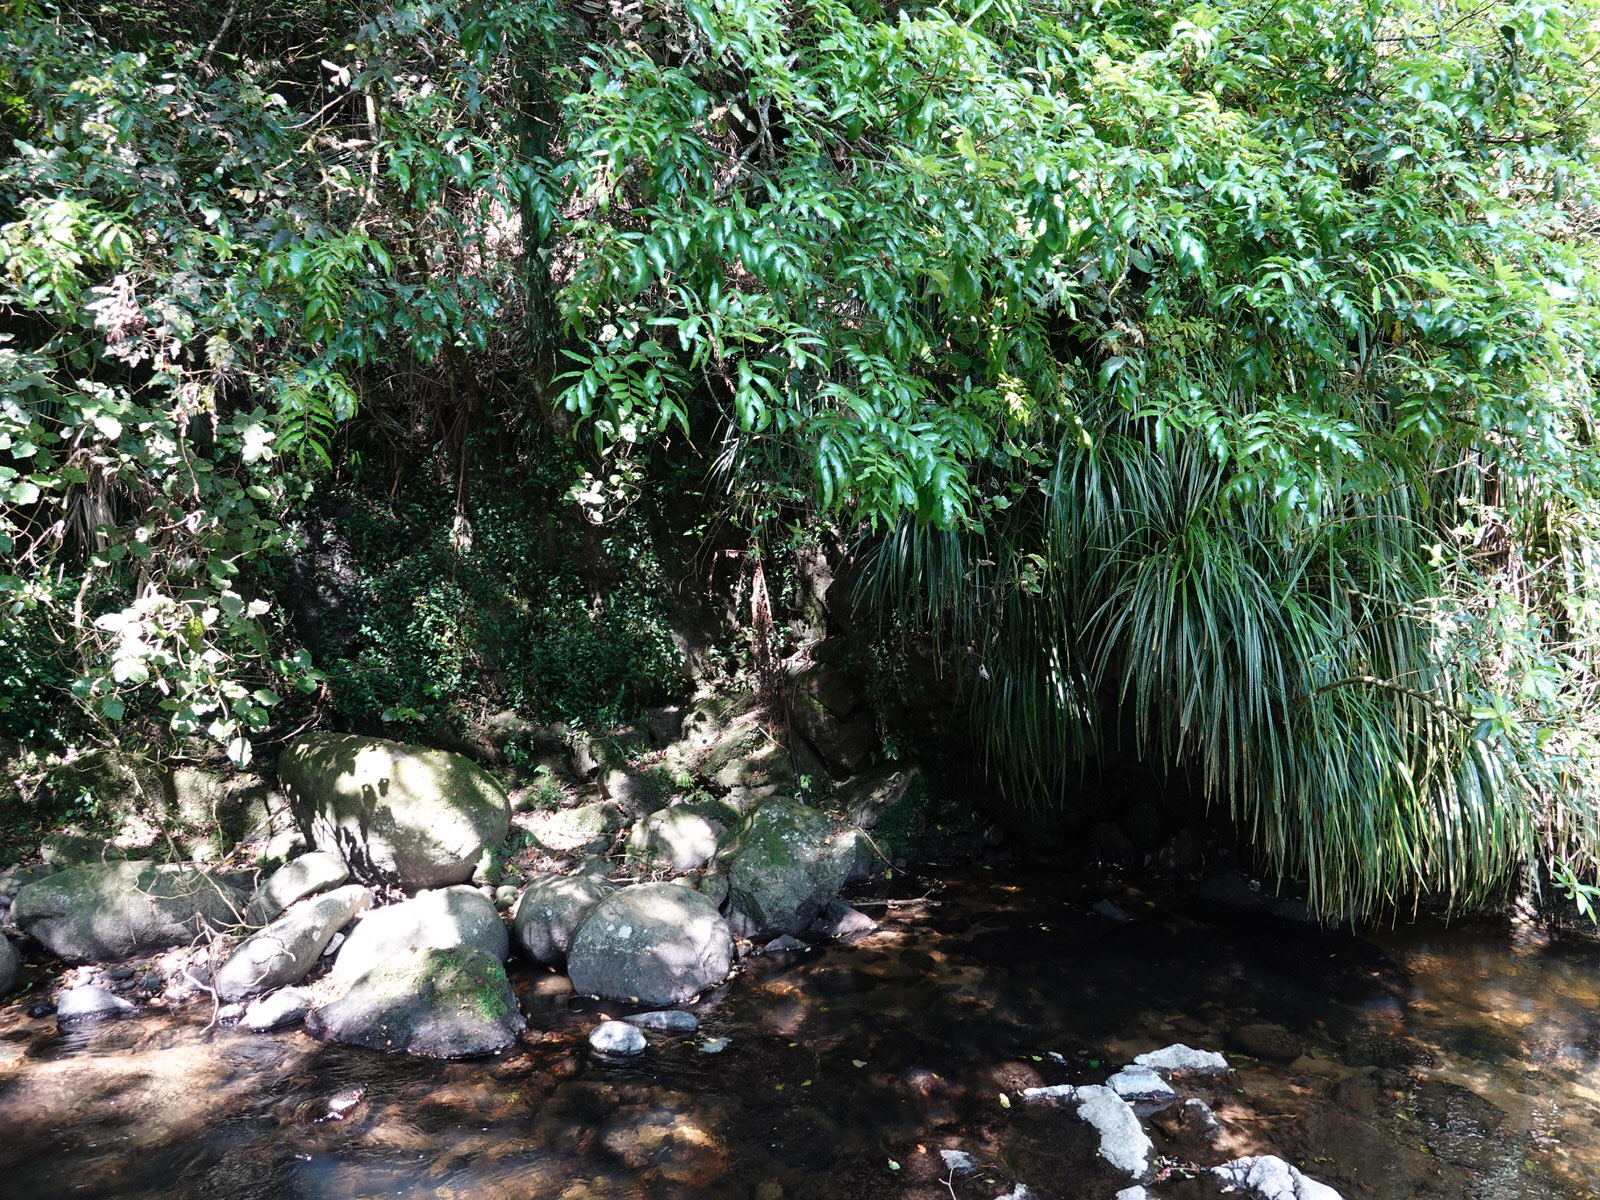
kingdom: Plantae
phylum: Tracheophyta
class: Magnoliopsida
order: Sapindales
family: Sapindaceae
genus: Alectryon
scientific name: Alectryon excelsus
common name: Three kings titoki
